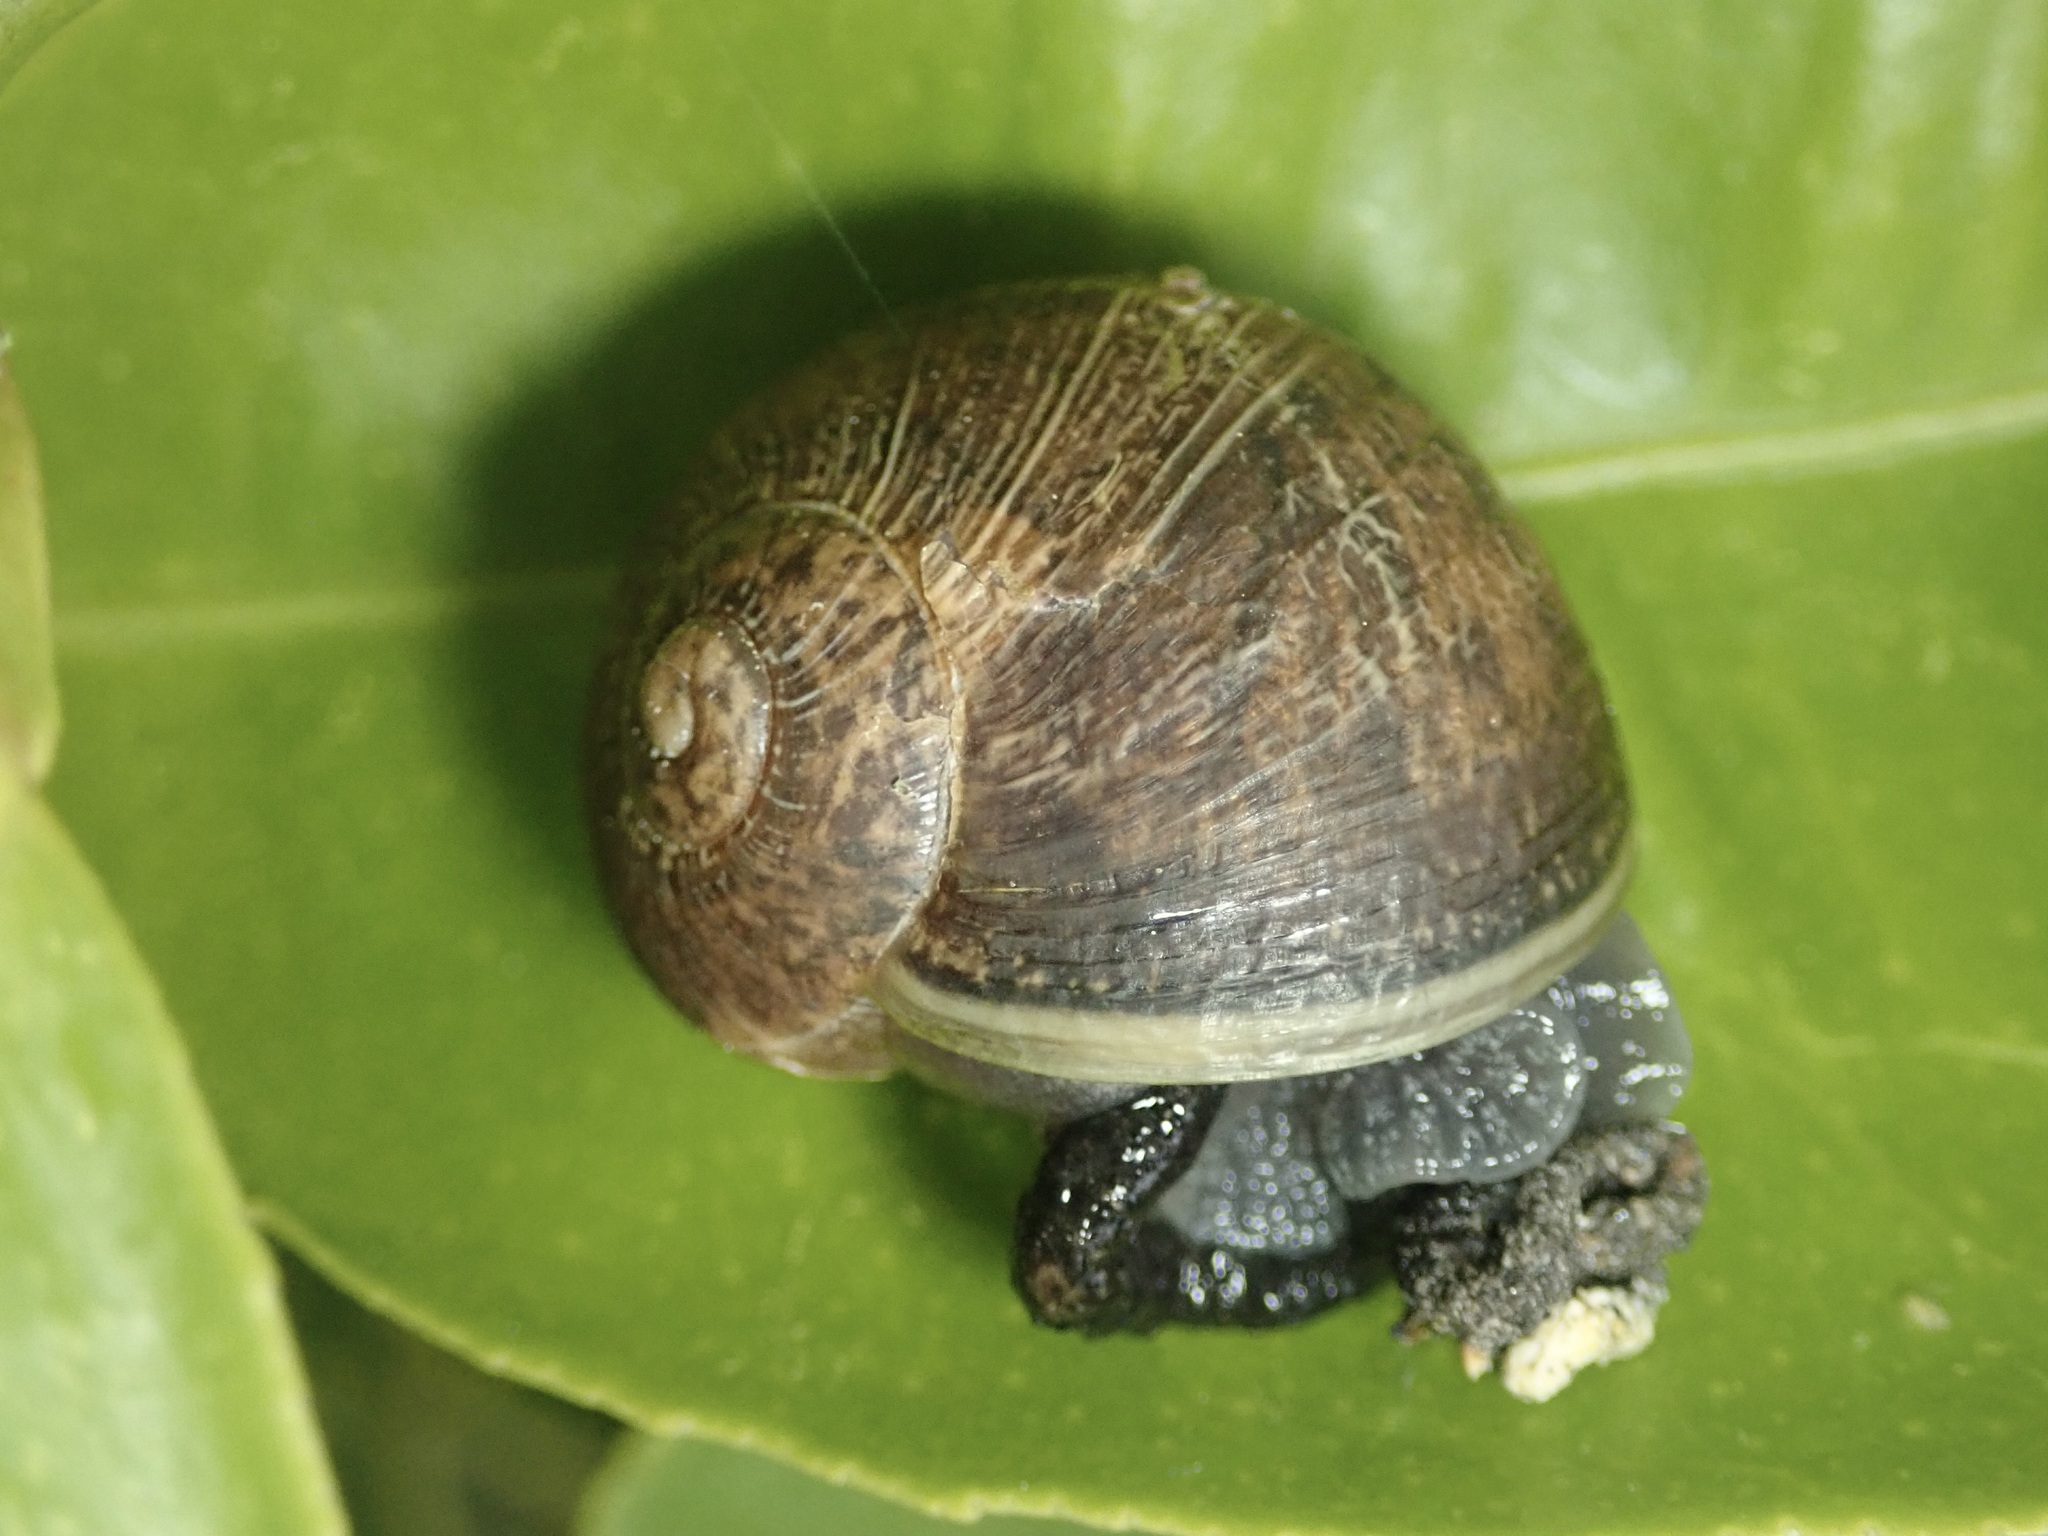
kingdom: Animalia
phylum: Mollusca
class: Gastropoda
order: Stylommatophora
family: Helicidae
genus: Cornu
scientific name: Cornu aspersum
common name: Brown garden snail
